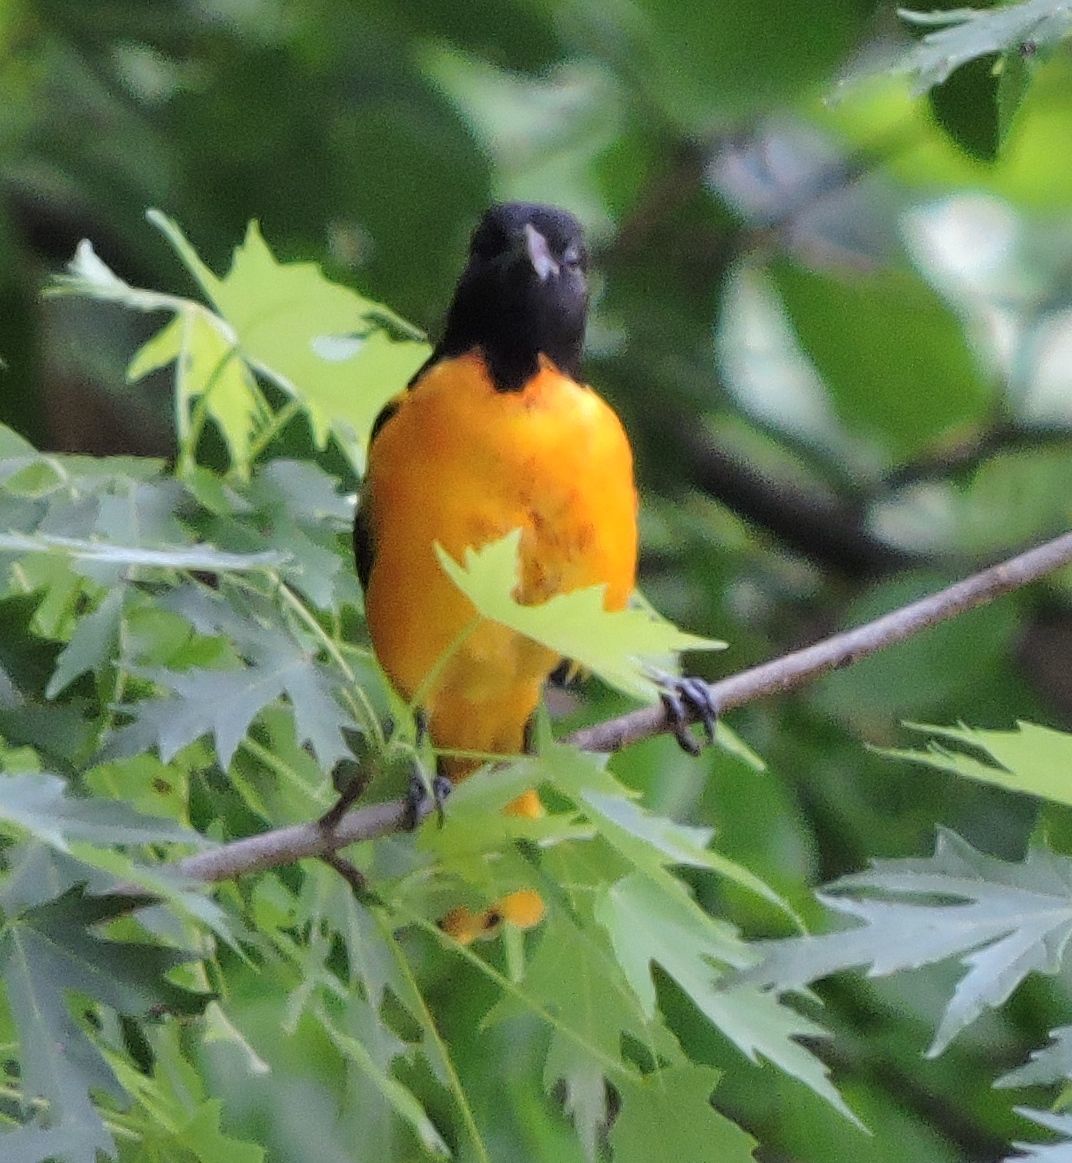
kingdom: Animalia
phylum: Chordata
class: Aves
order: Passeriformes
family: Icteridae
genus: Icterus
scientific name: Icterus galbula
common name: Baltimore oriole
